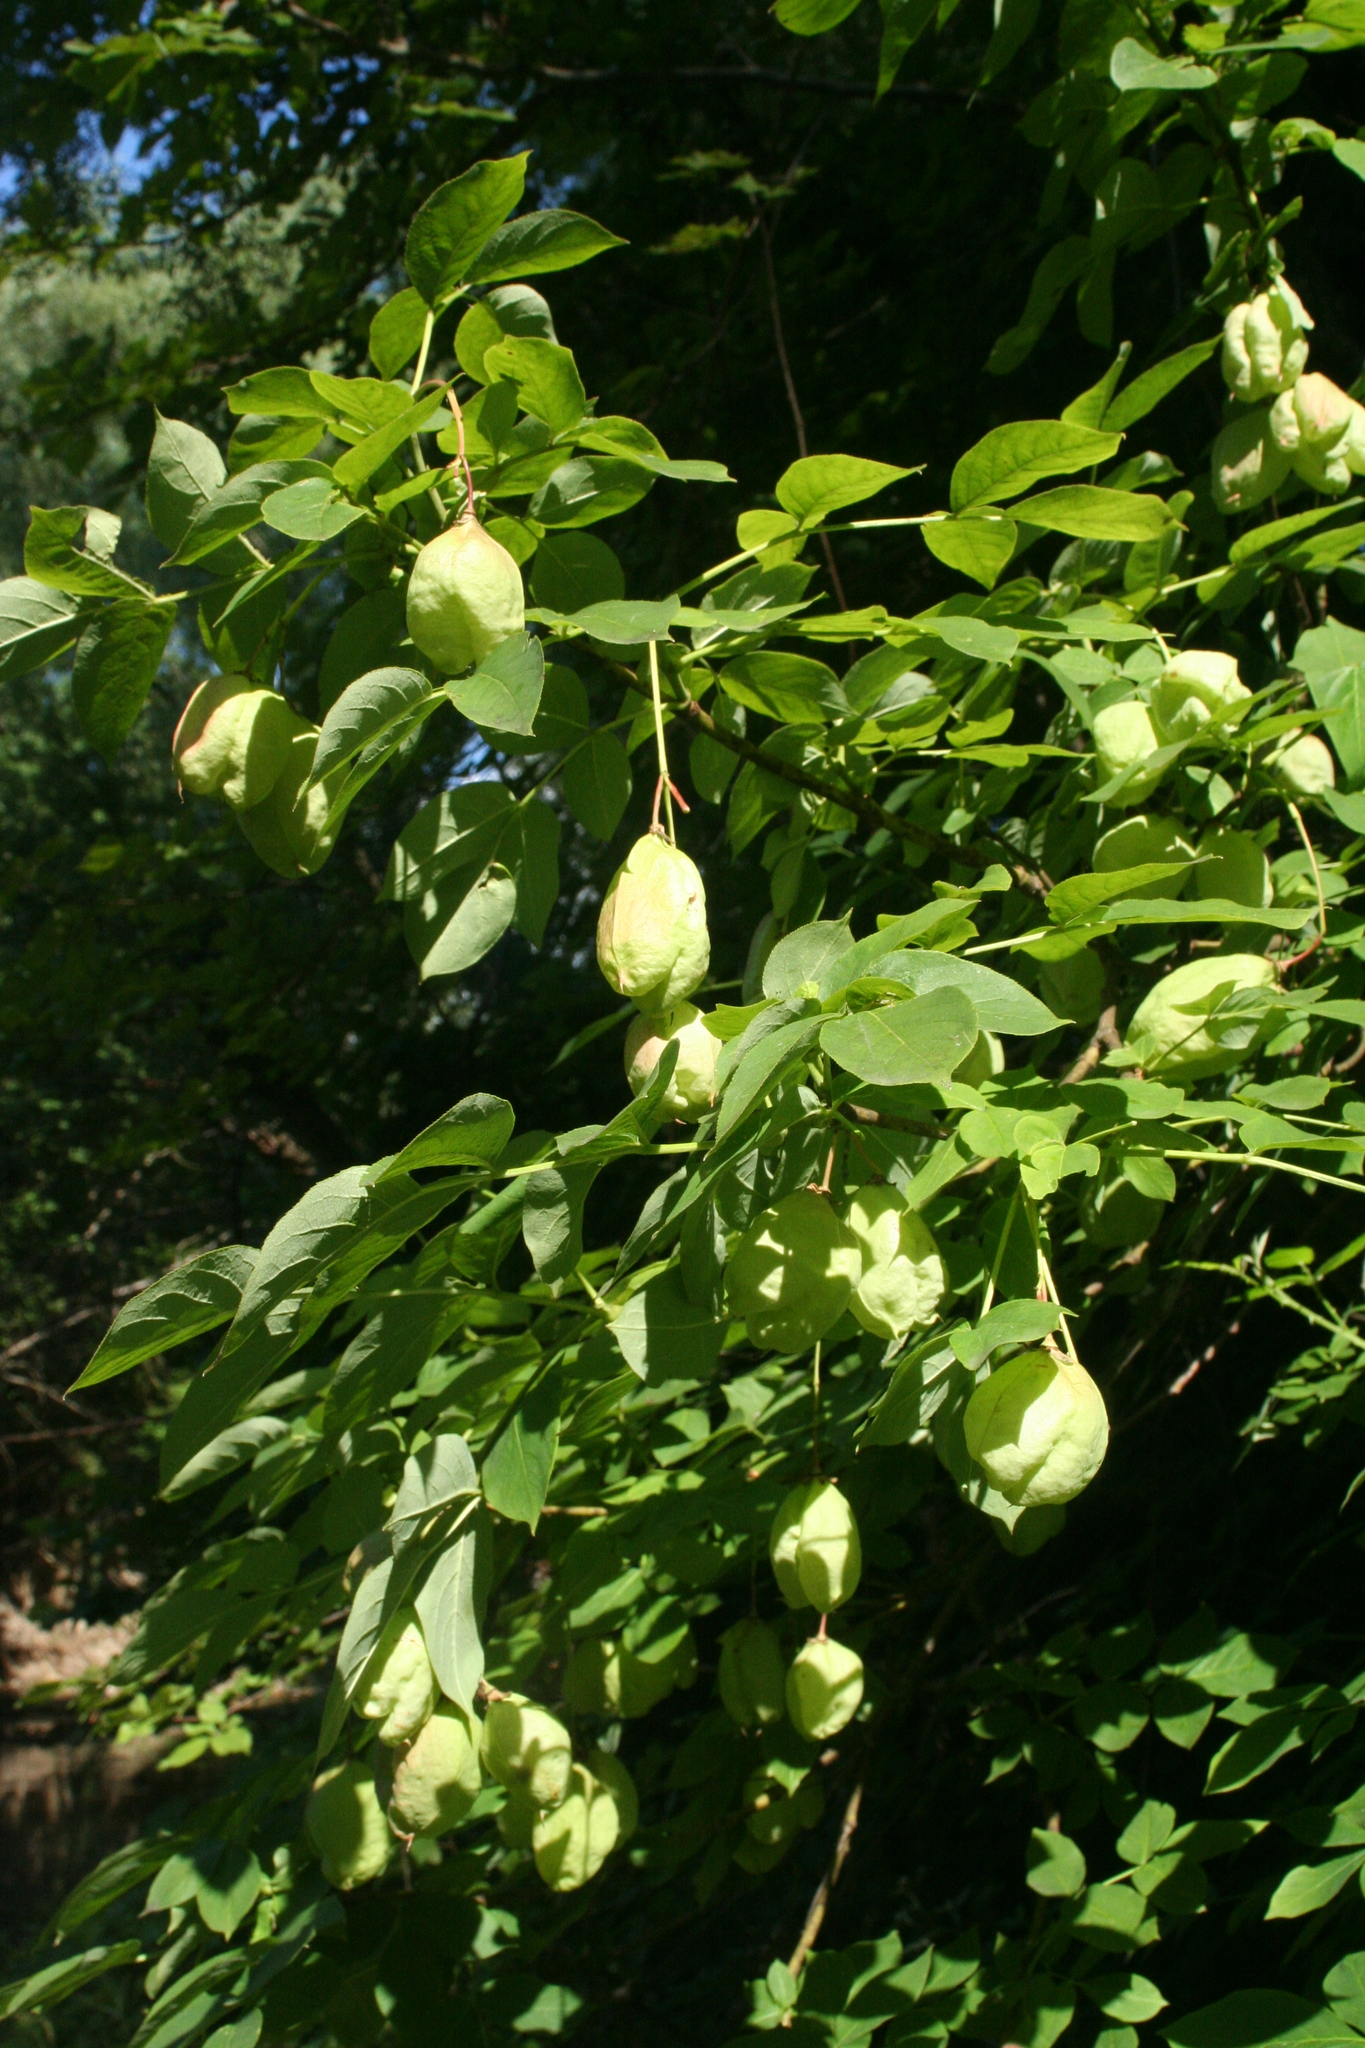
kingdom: Plantae
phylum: Tracheophyta
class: Magnoliopsida
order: Crossosomatales
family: Staphyleaceae
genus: Staphylea
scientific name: Staphylea pinnata
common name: Bladdernut
